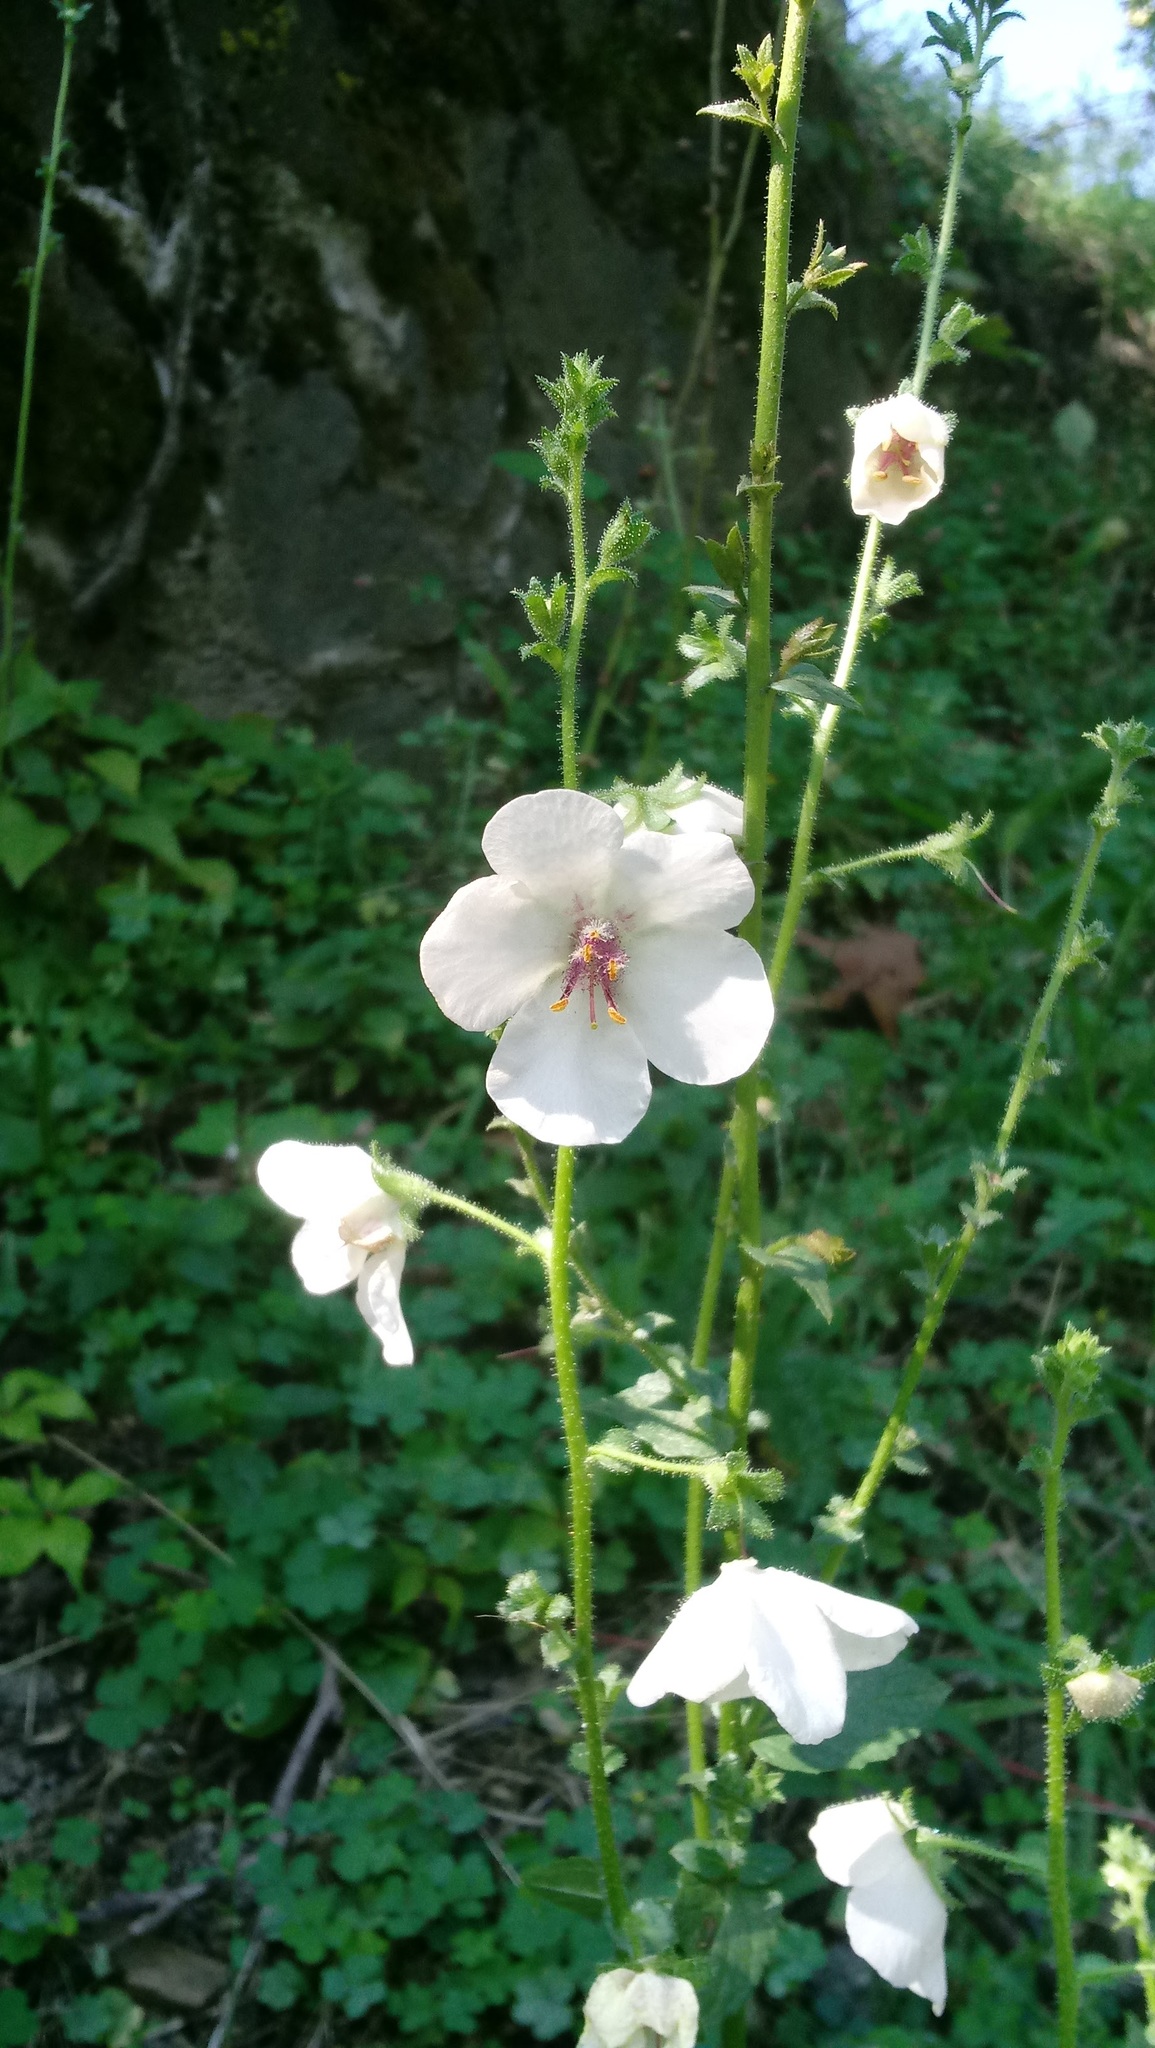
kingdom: Plantae
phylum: Tracheophyta
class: Magnoliopsida
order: Lamiales
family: Scrophulariaceae
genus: Verbascum
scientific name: Verbascum blattaria
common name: Moth mullein
